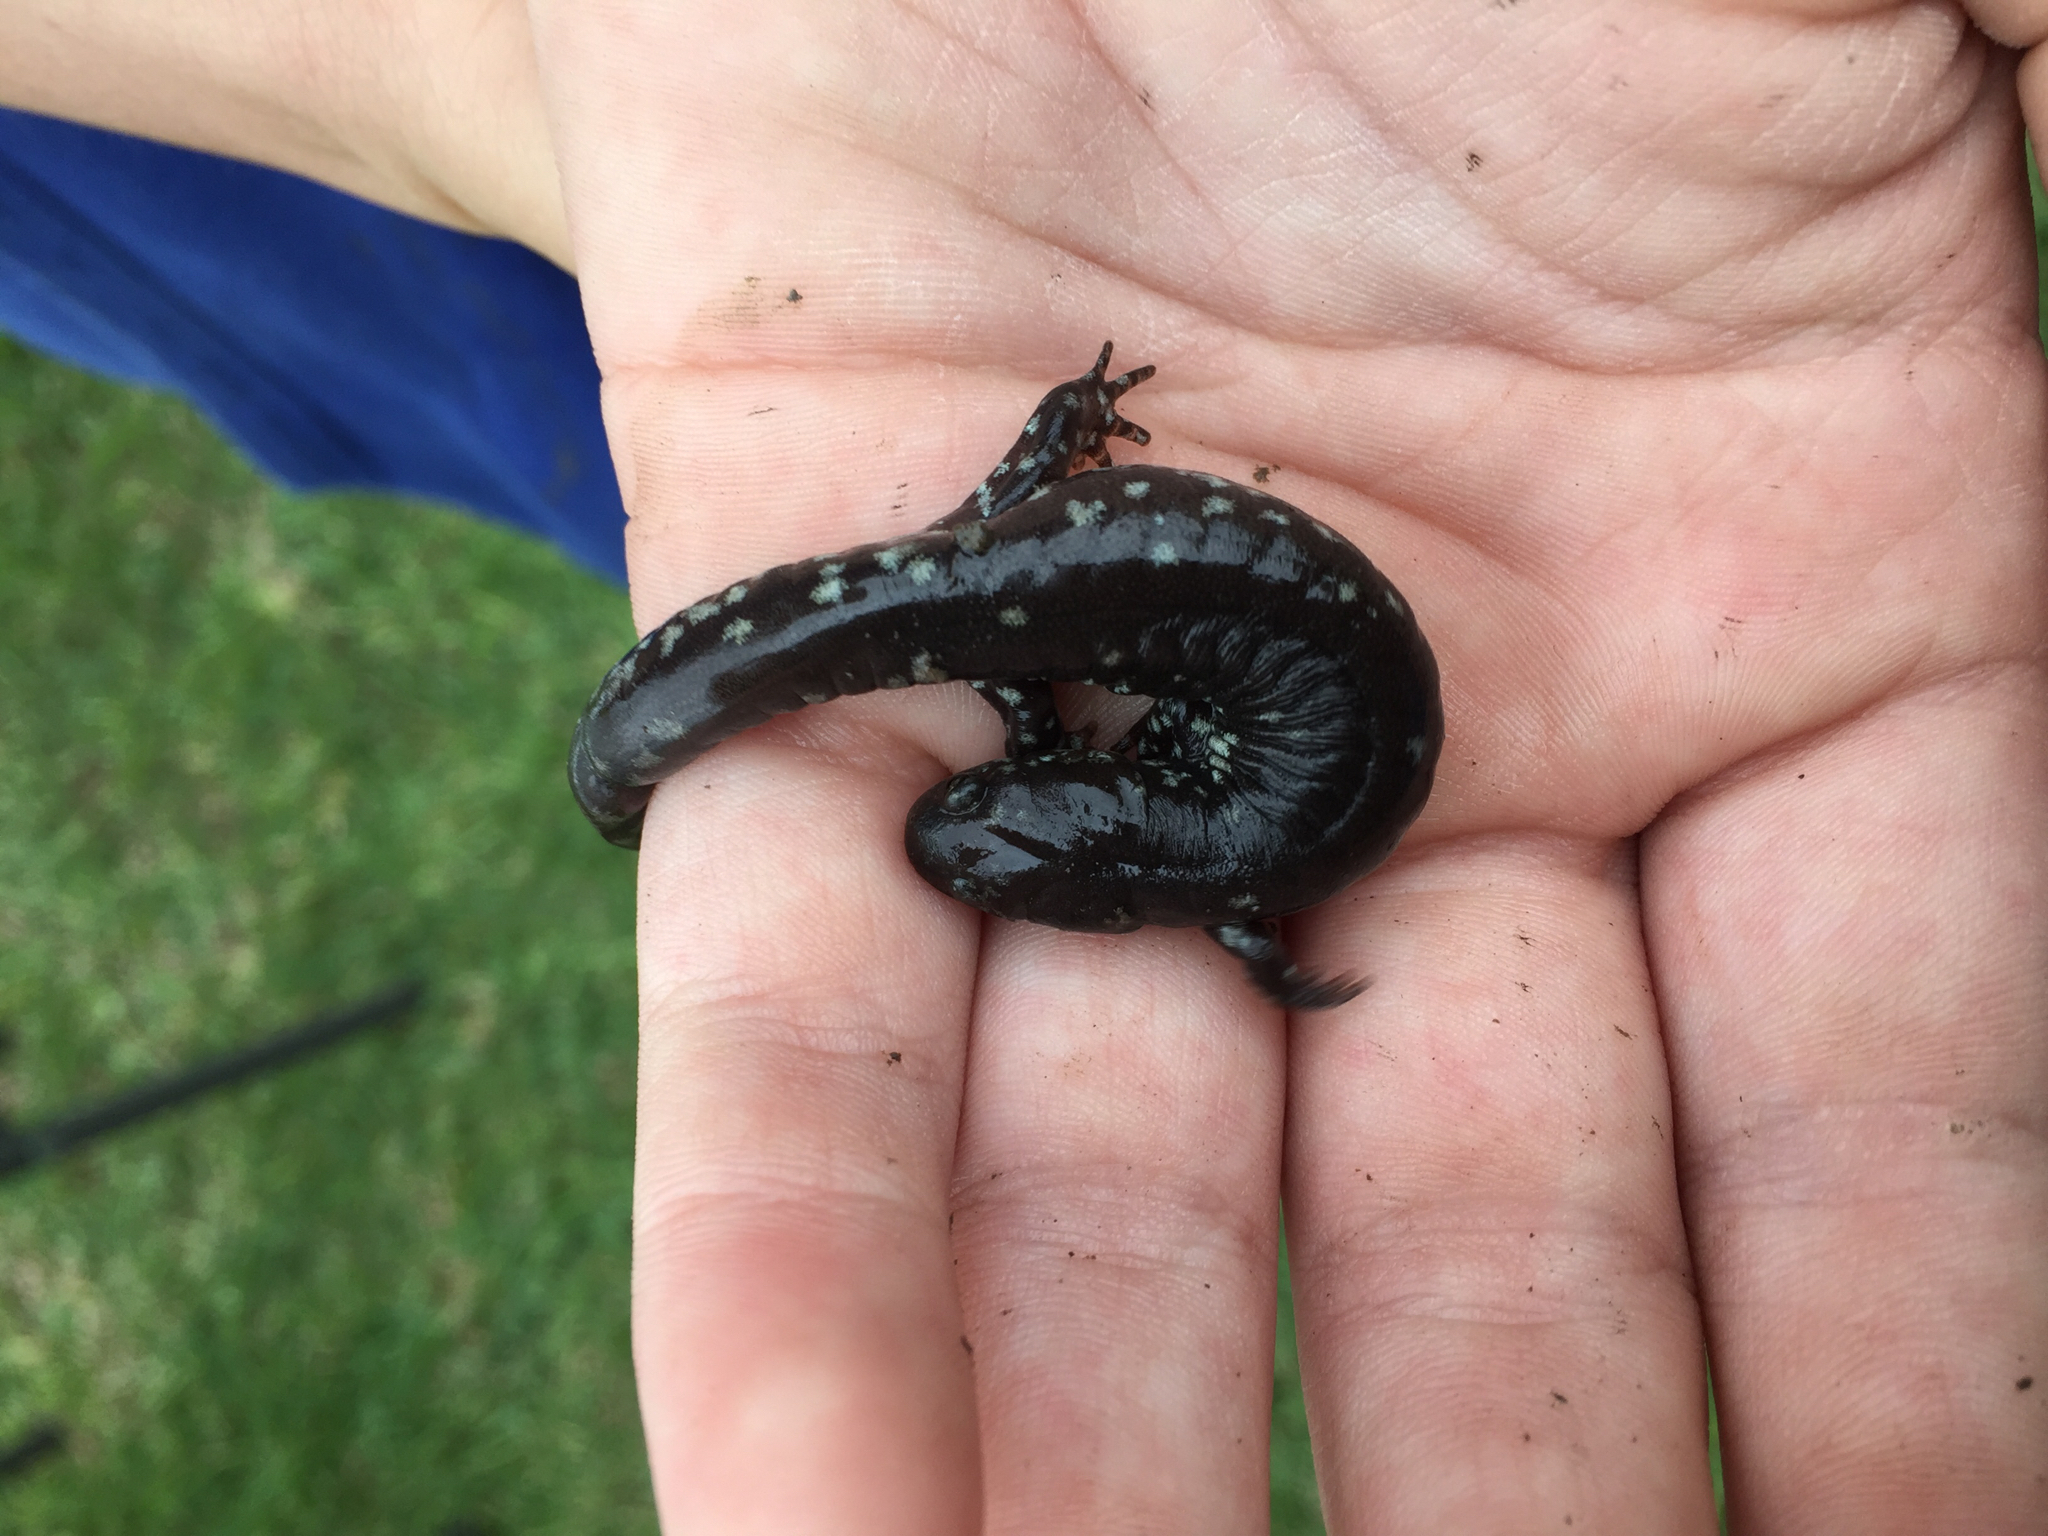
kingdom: Animalia
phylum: Chordata
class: Amphibia
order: Caudata
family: Ambystomatidae
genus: Ambystoma
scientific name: Ambystoma texanum
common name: Small-mouth salamander
